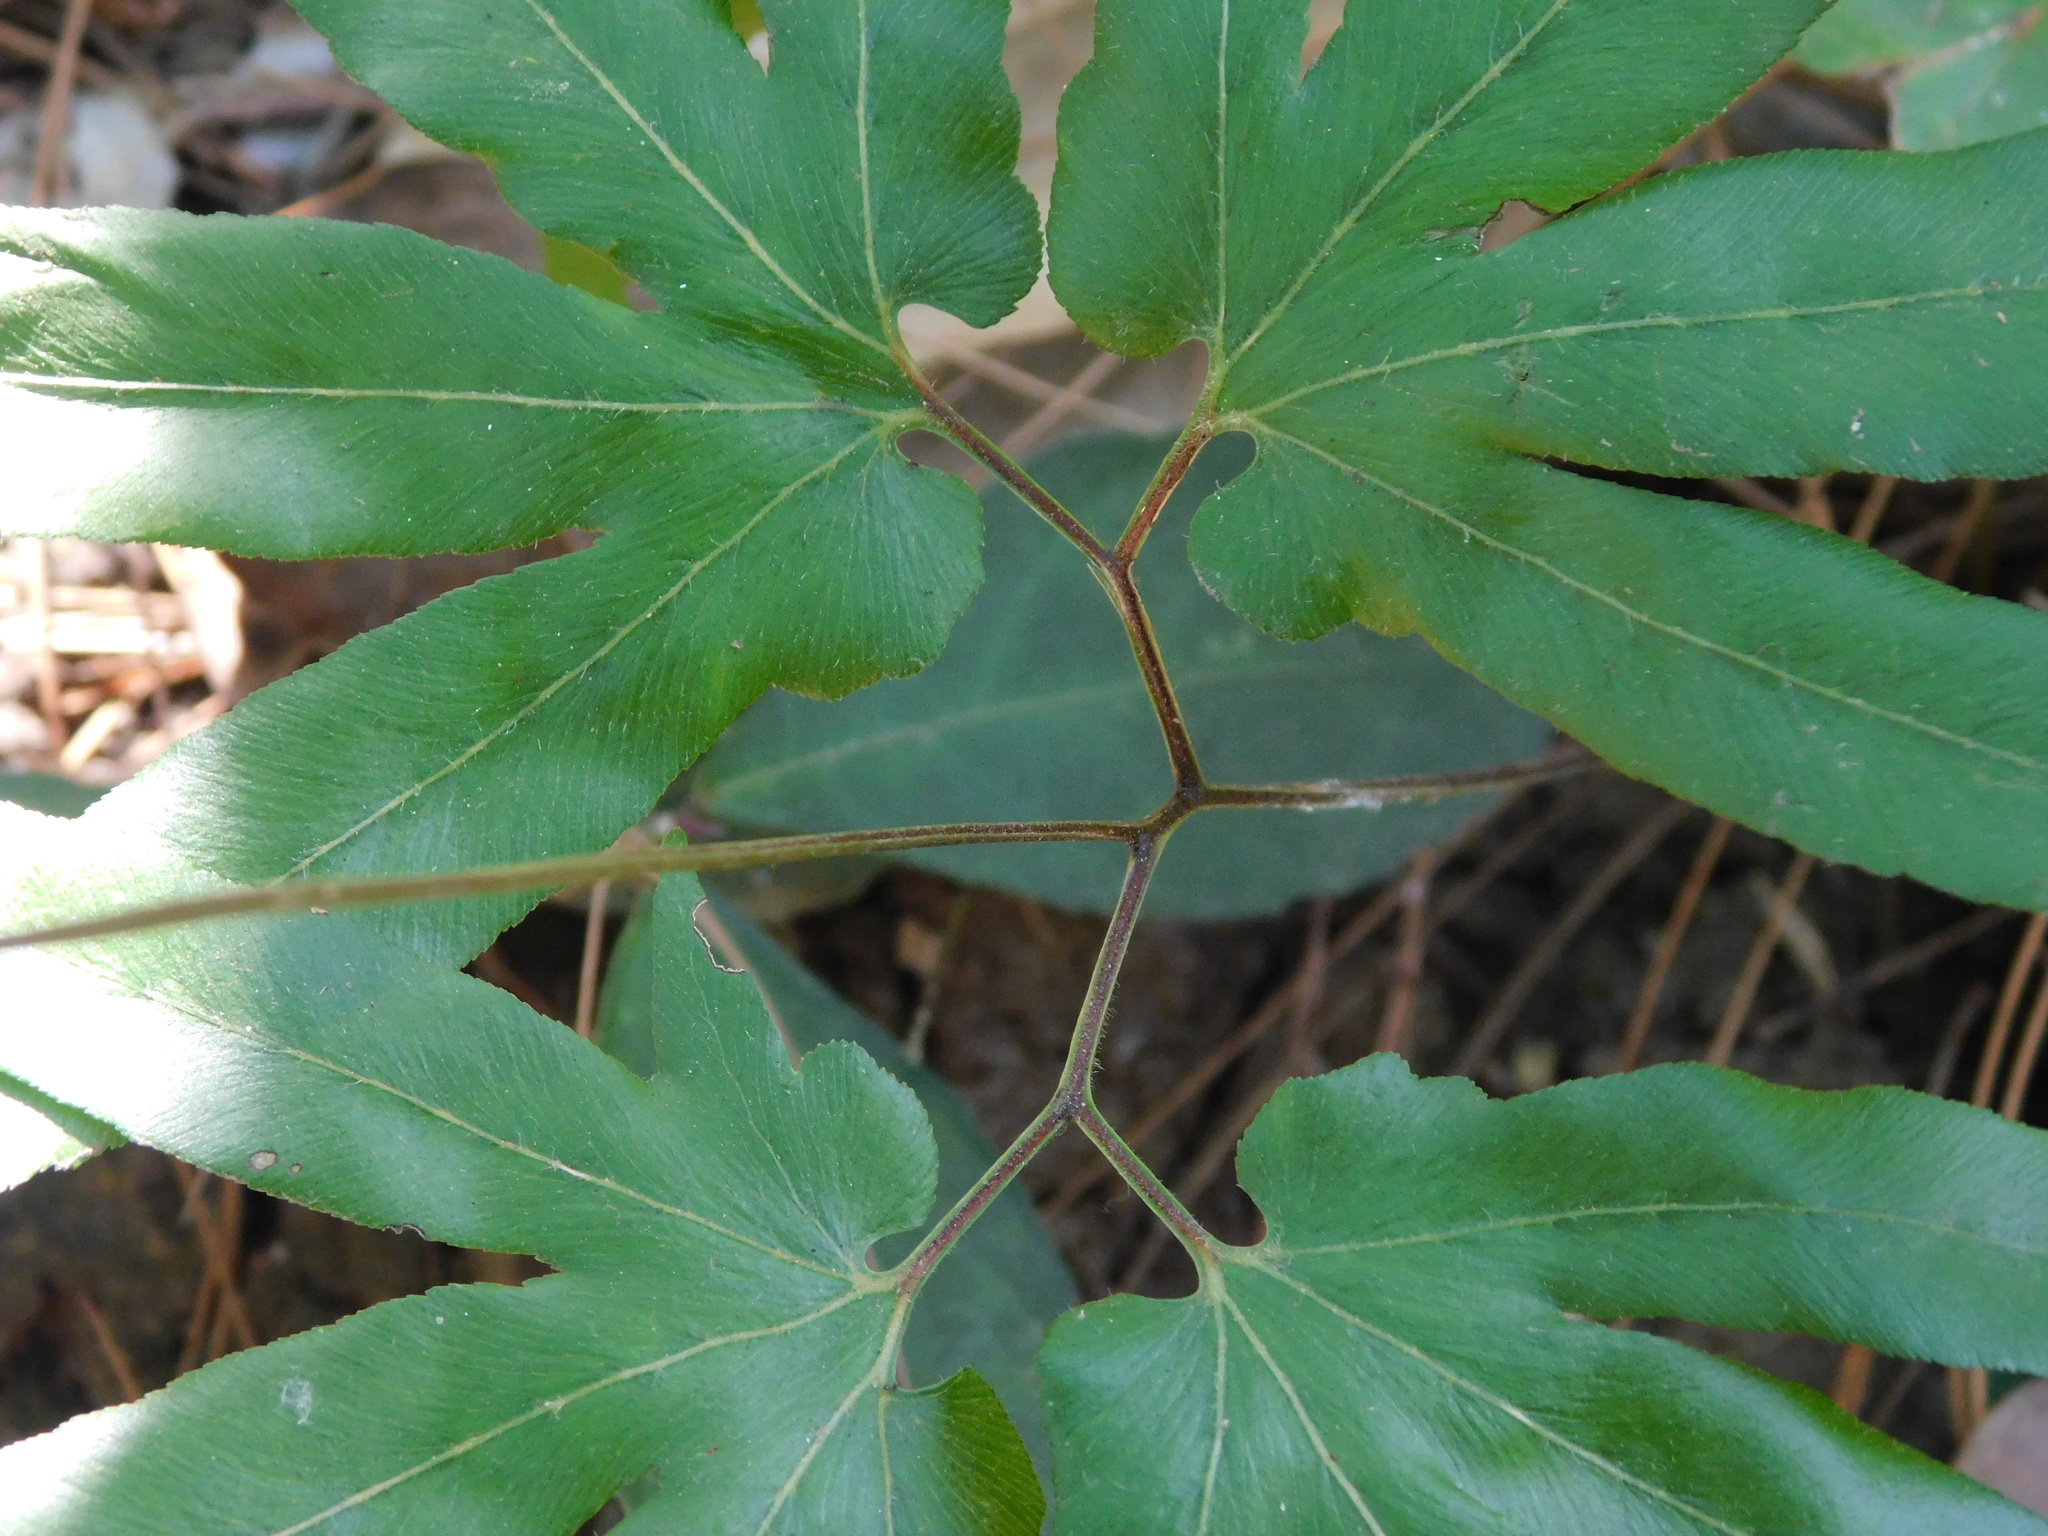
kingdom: Plantae
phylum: Tracheophyta
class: Polypodiopsida
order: Schizaeales
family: Lygodiaceae
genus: Lygodium
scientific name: Lygodium flexuosum
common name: Maidenhair creeper
